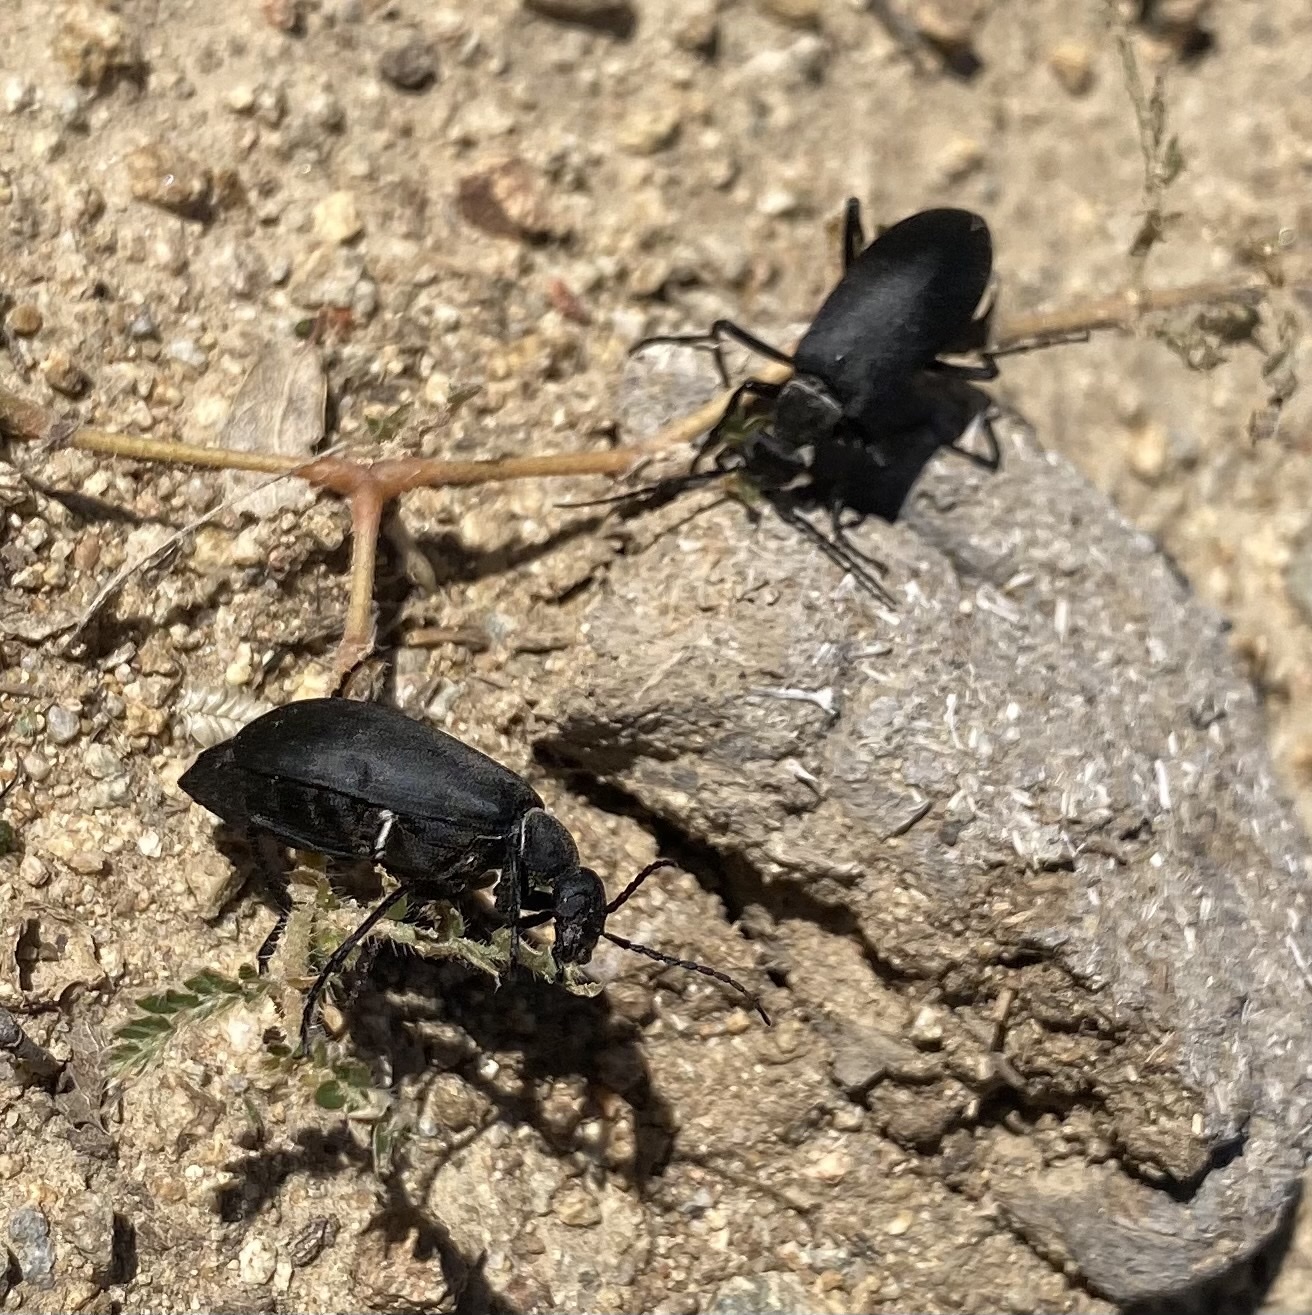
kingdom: Animalia
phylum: Arthropoda
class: Insecta
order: Coleoptera
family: Meloidae
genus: Epicauta
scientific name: Epicauta segmenta
